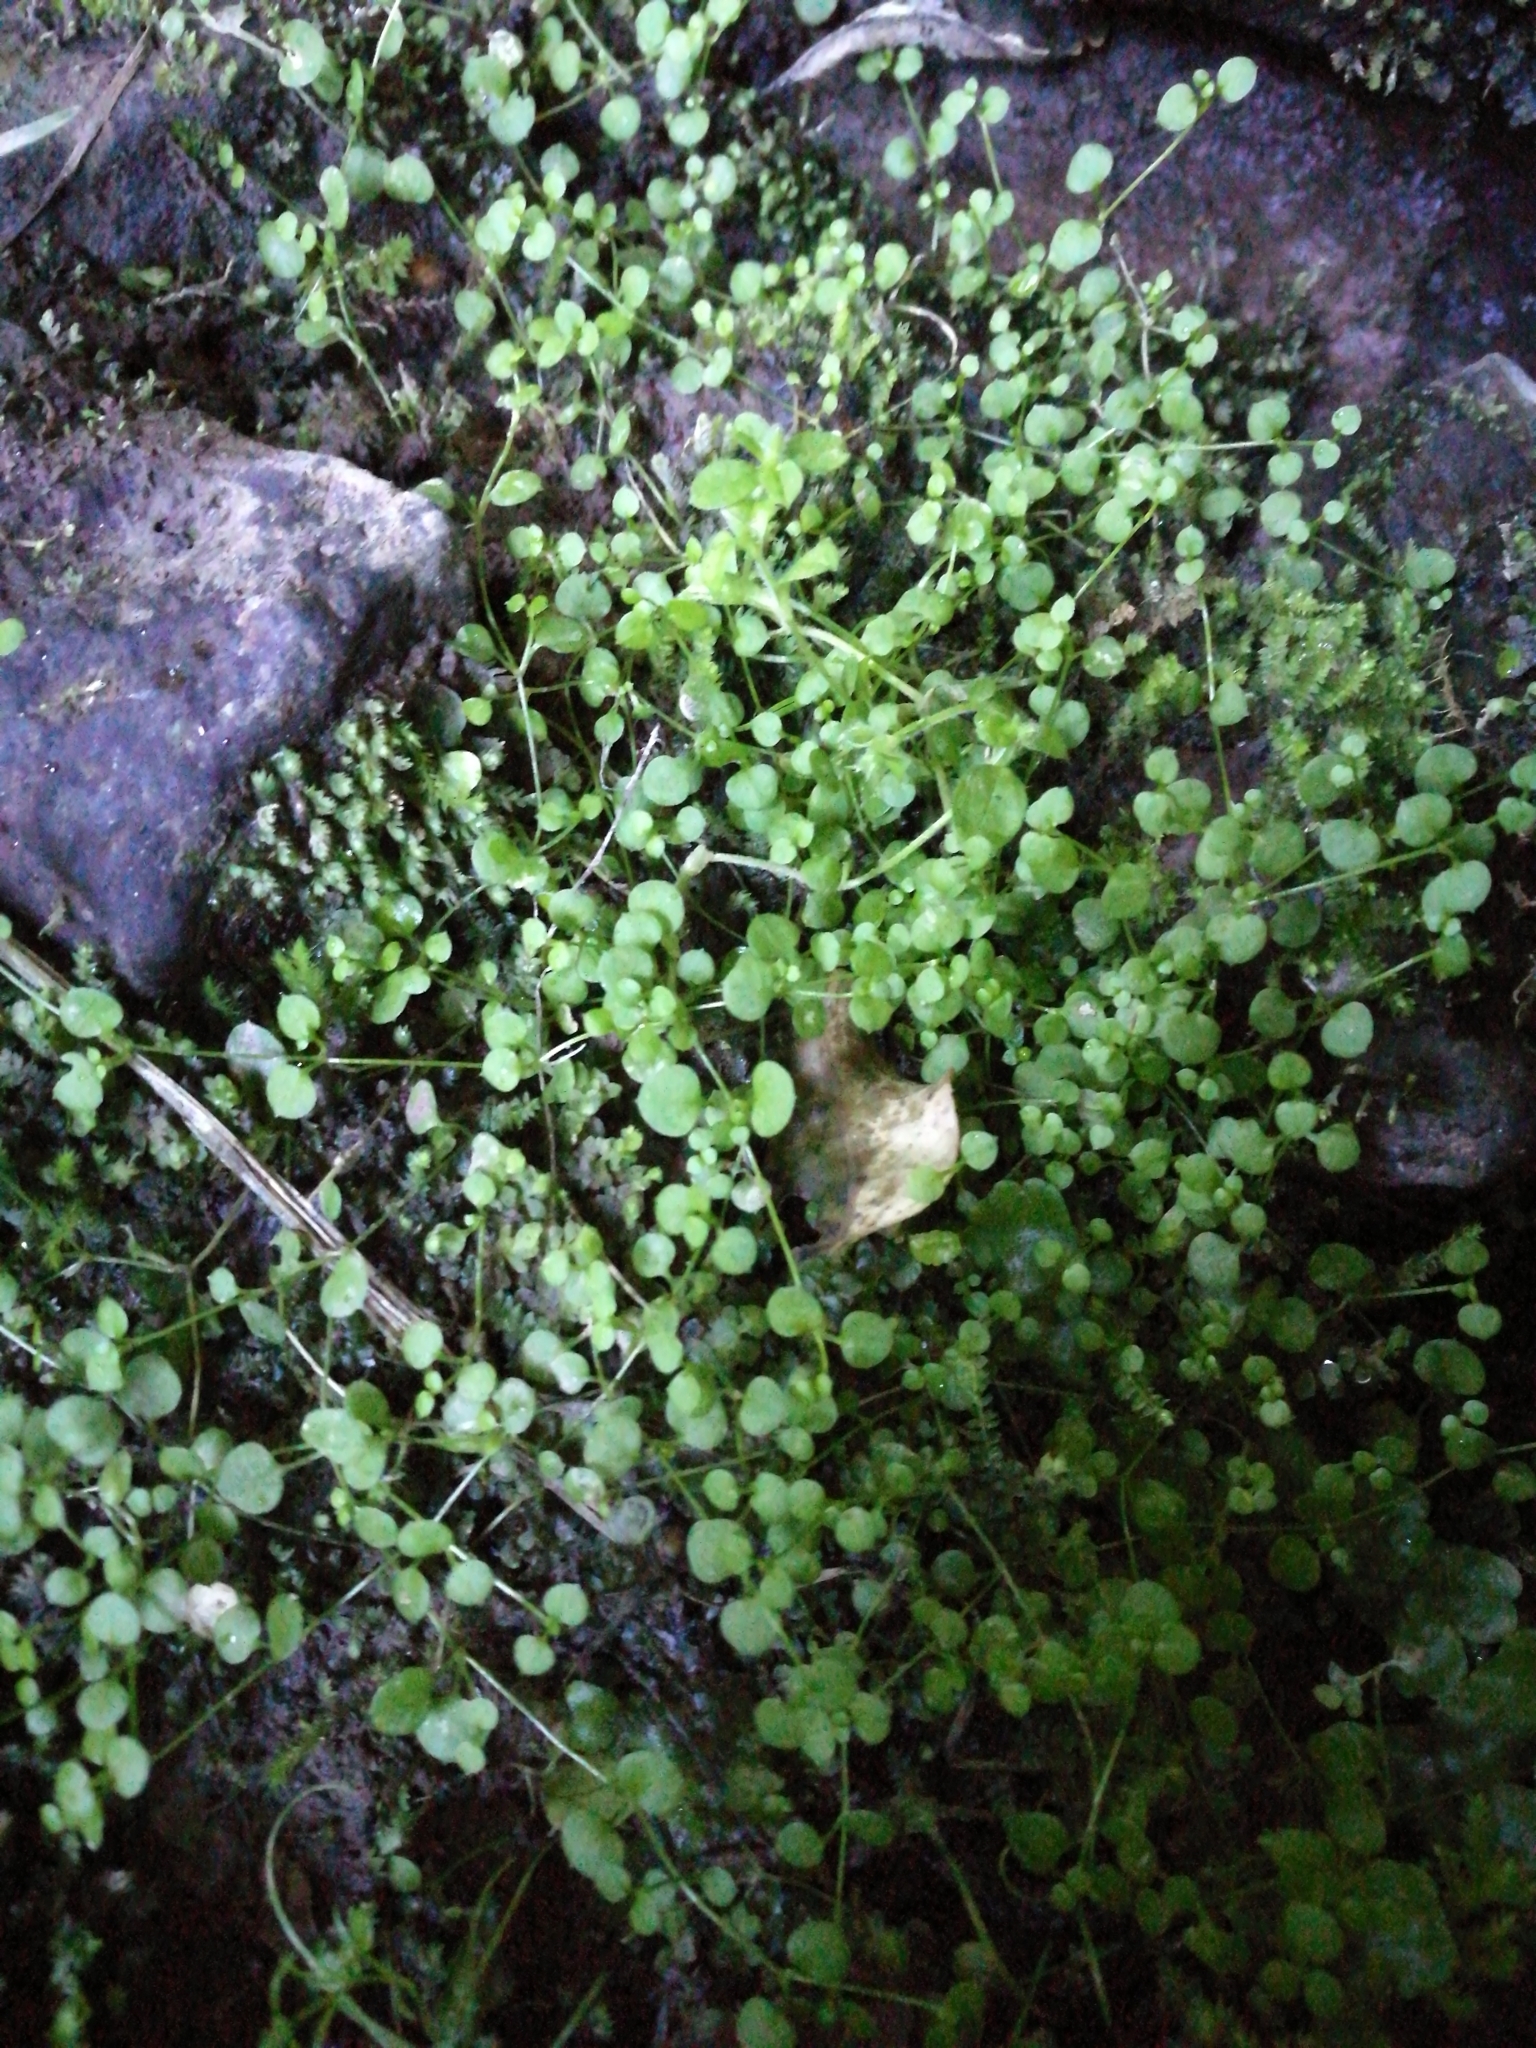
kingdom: Plantae
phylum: Tracheophyta
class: Magnoliopsida
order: Caryophyllales
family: Caryophyllaceae
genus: Stellaria
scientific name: Stellaria parviflora
